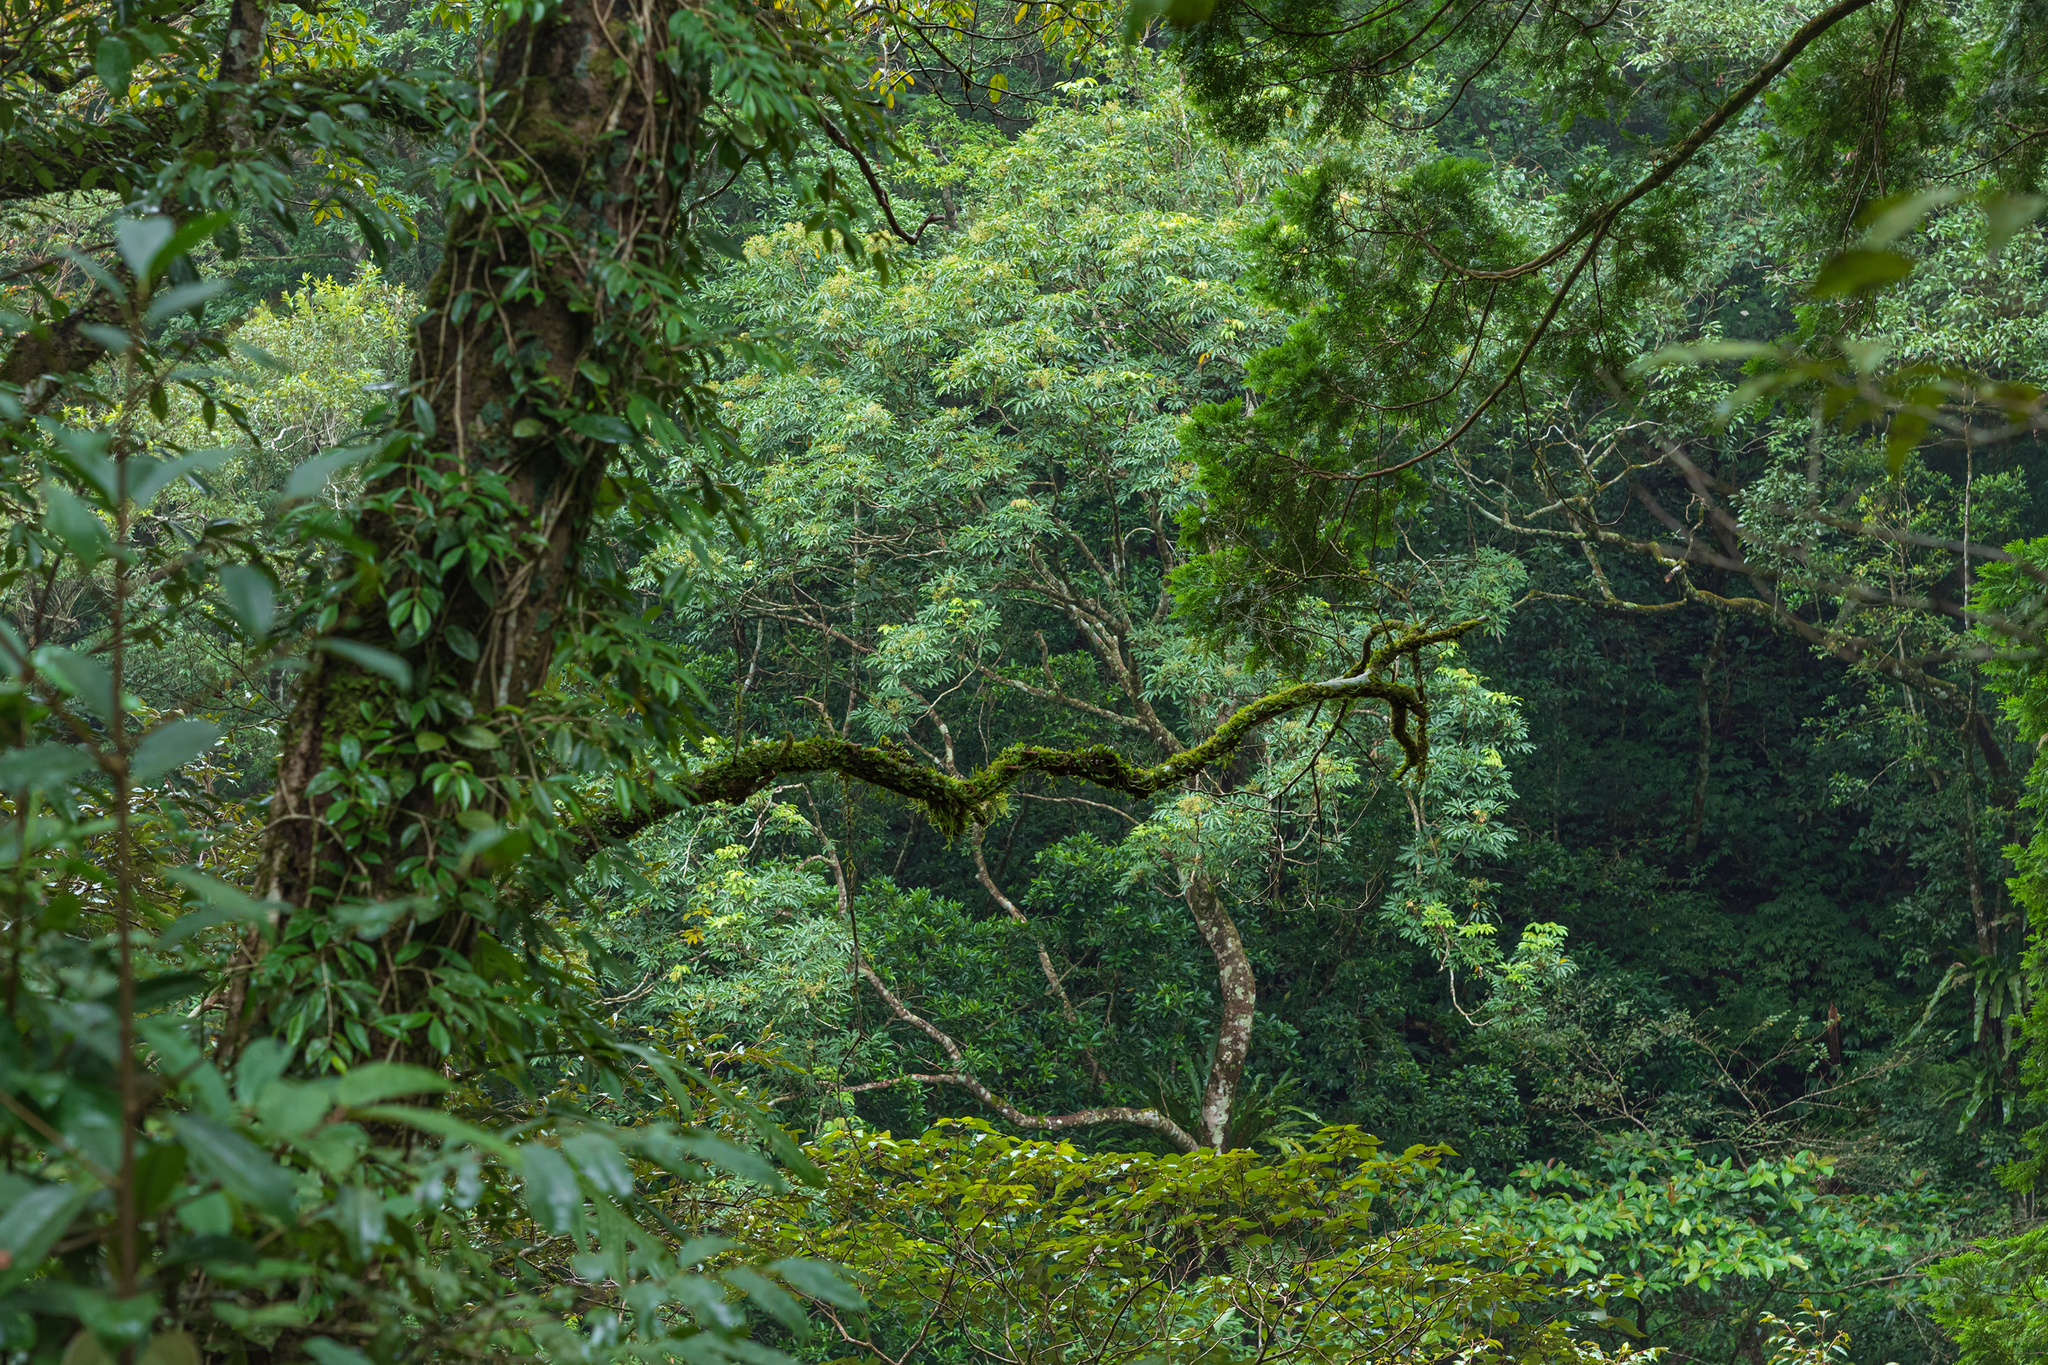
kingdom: Plantae
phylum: Tracheophyta
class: Magnoliopsida
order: Apiales
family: Araliaceae
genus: Heptapleurum
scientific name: Heptapleurum heptaphyllum
